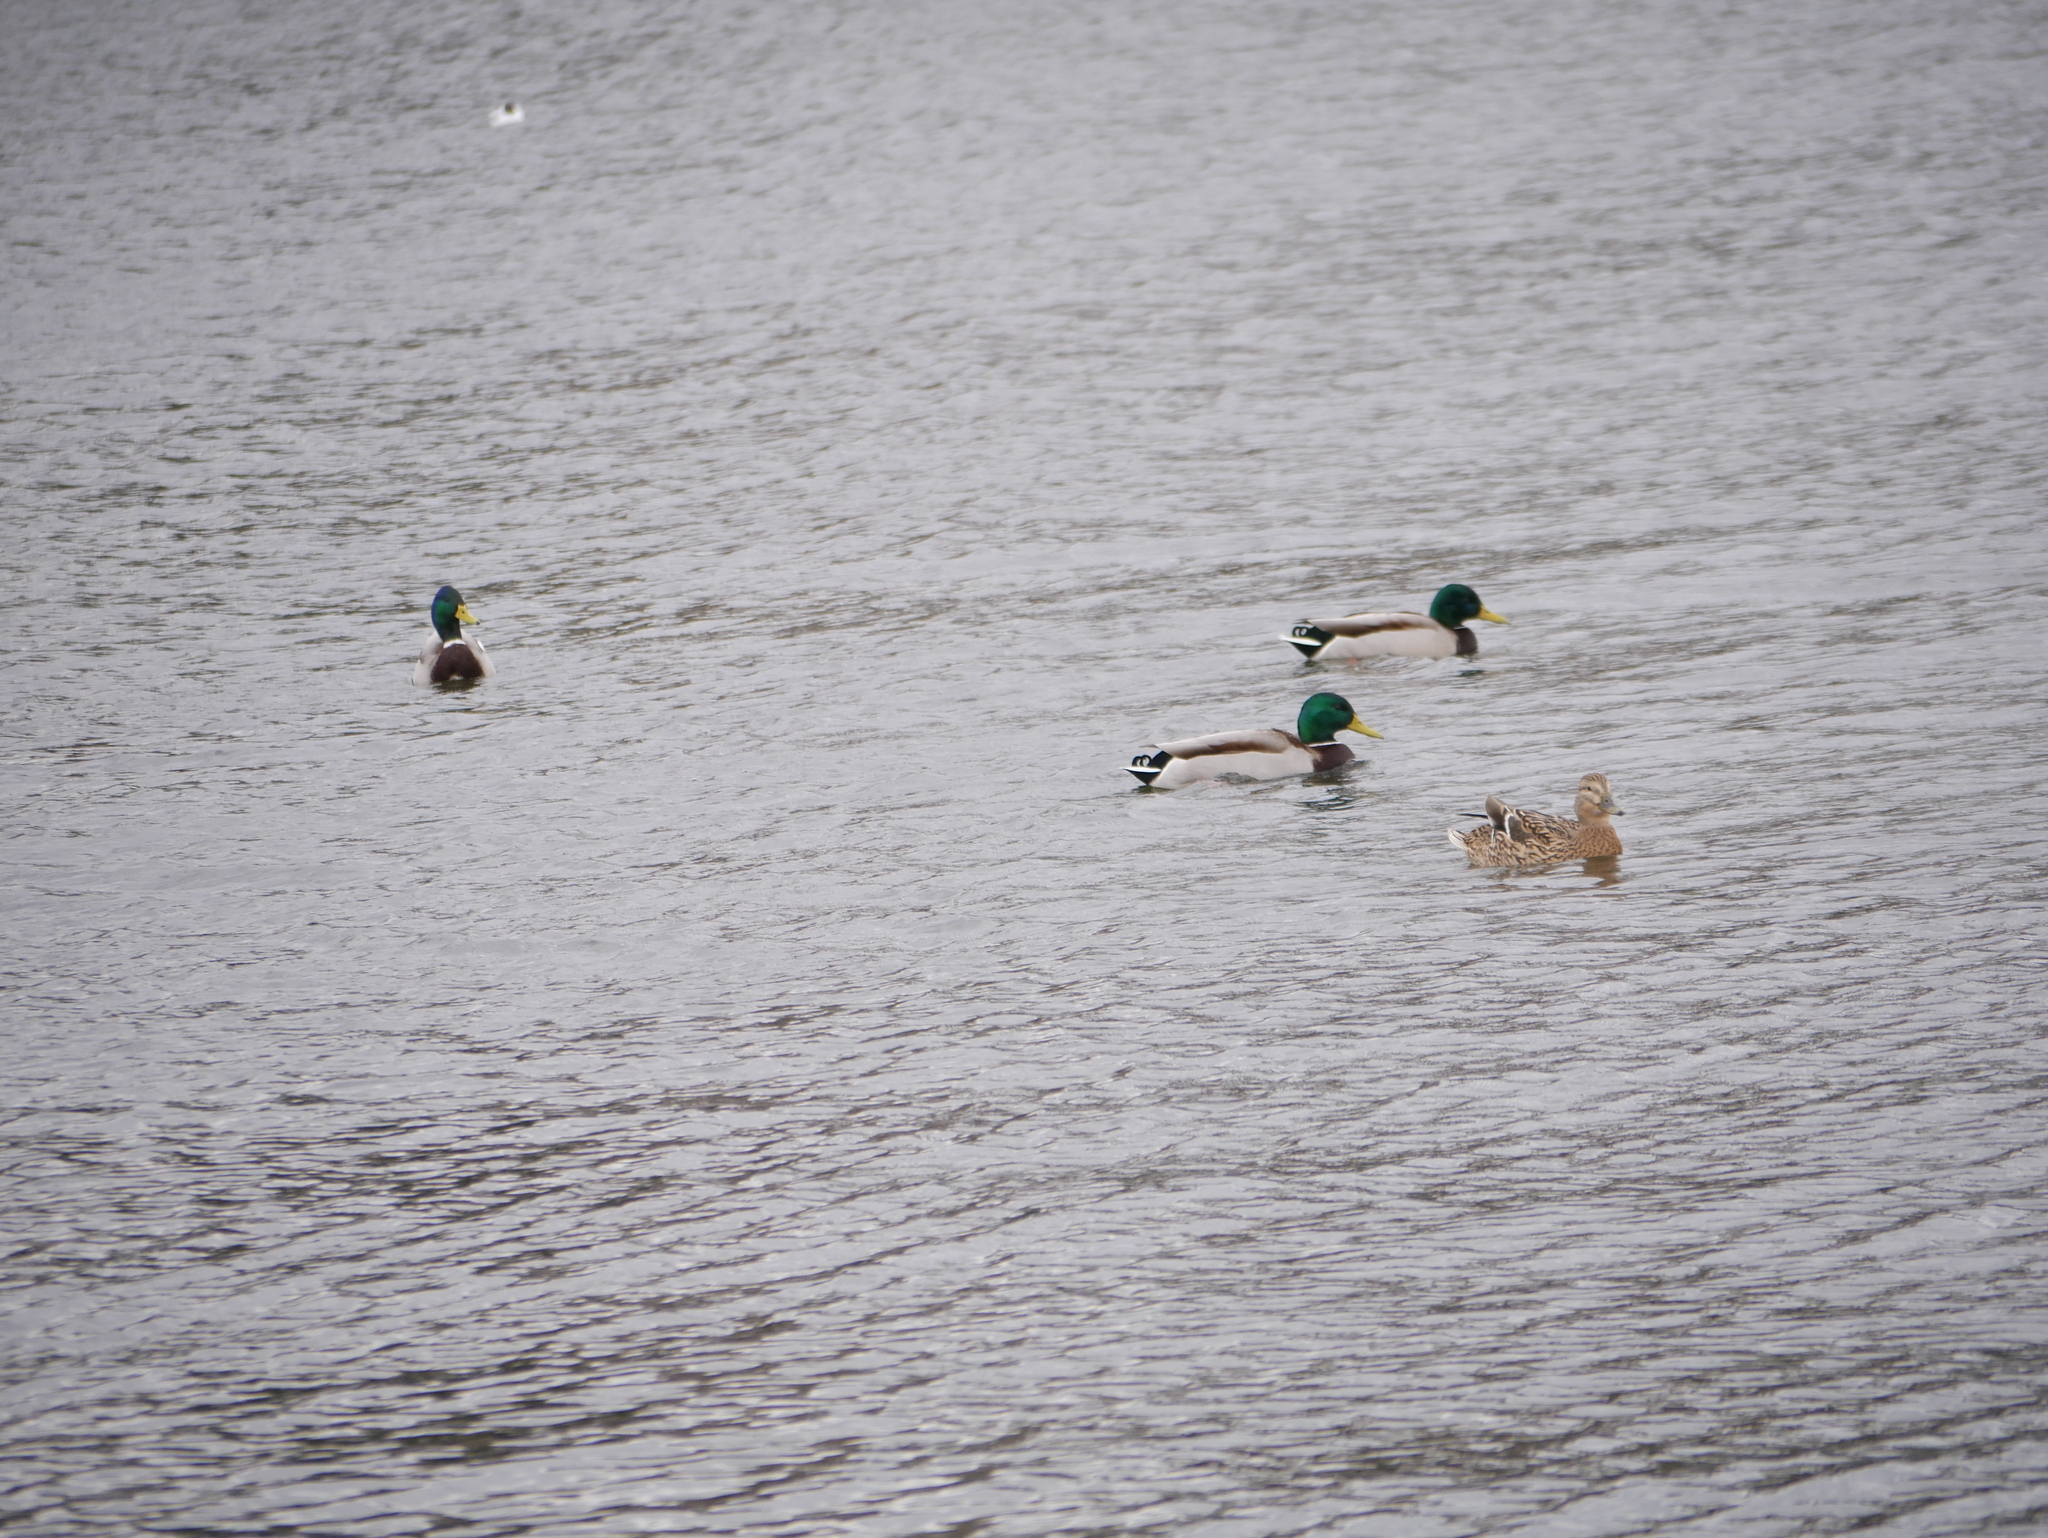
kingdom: Animalia
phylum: Chordata
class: Aves
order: Anseriformes
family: Anatidae
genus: Anas
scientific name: Anas platyrhynchos
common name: Mallard
